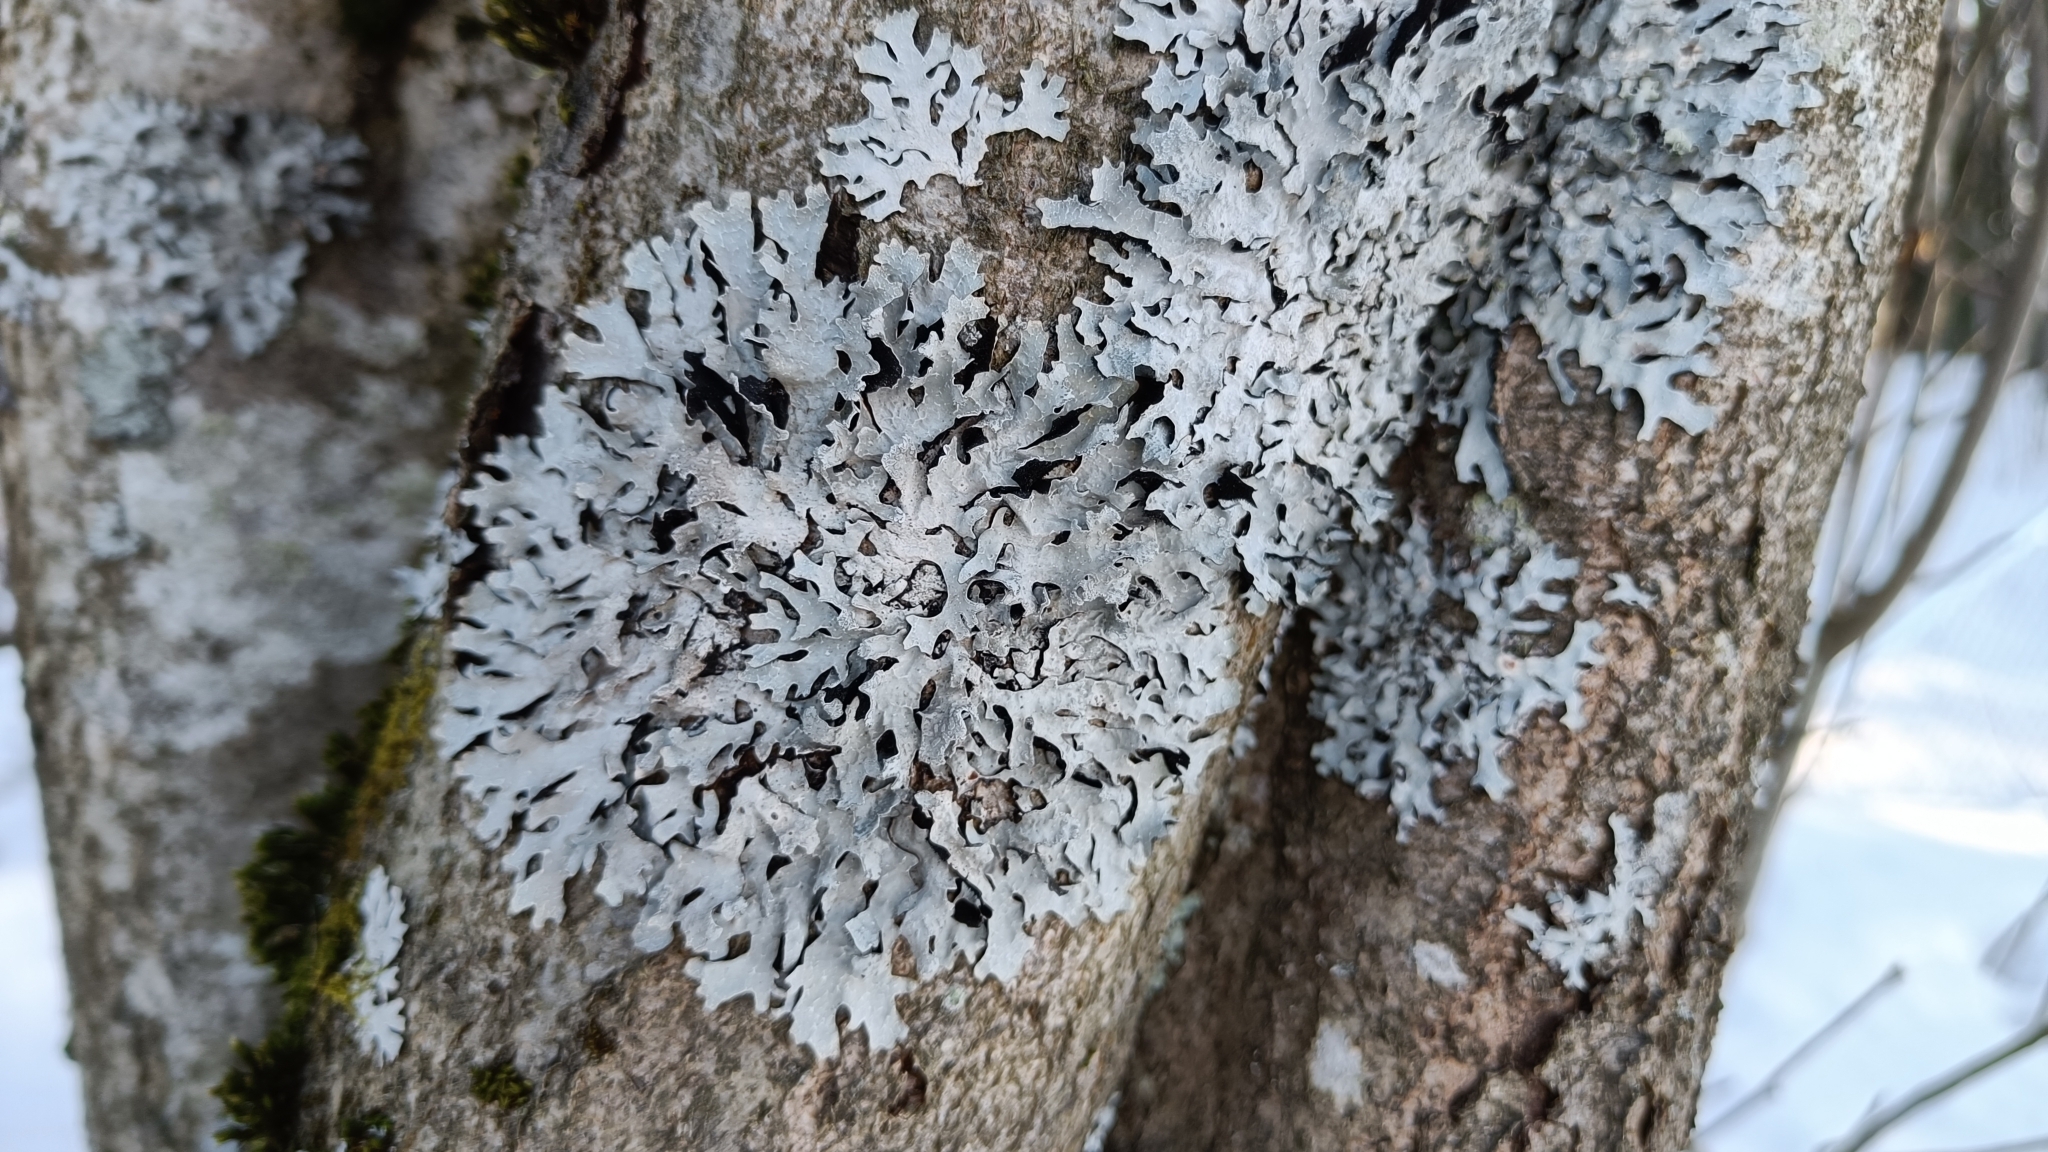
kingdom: Fungi
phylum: Ascomycota
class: Lecanoromycetes
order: Lecanorales
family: Parmeliaceae
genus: Parmelia
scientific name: Parmelia sulcata
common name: Netted shield lichen
